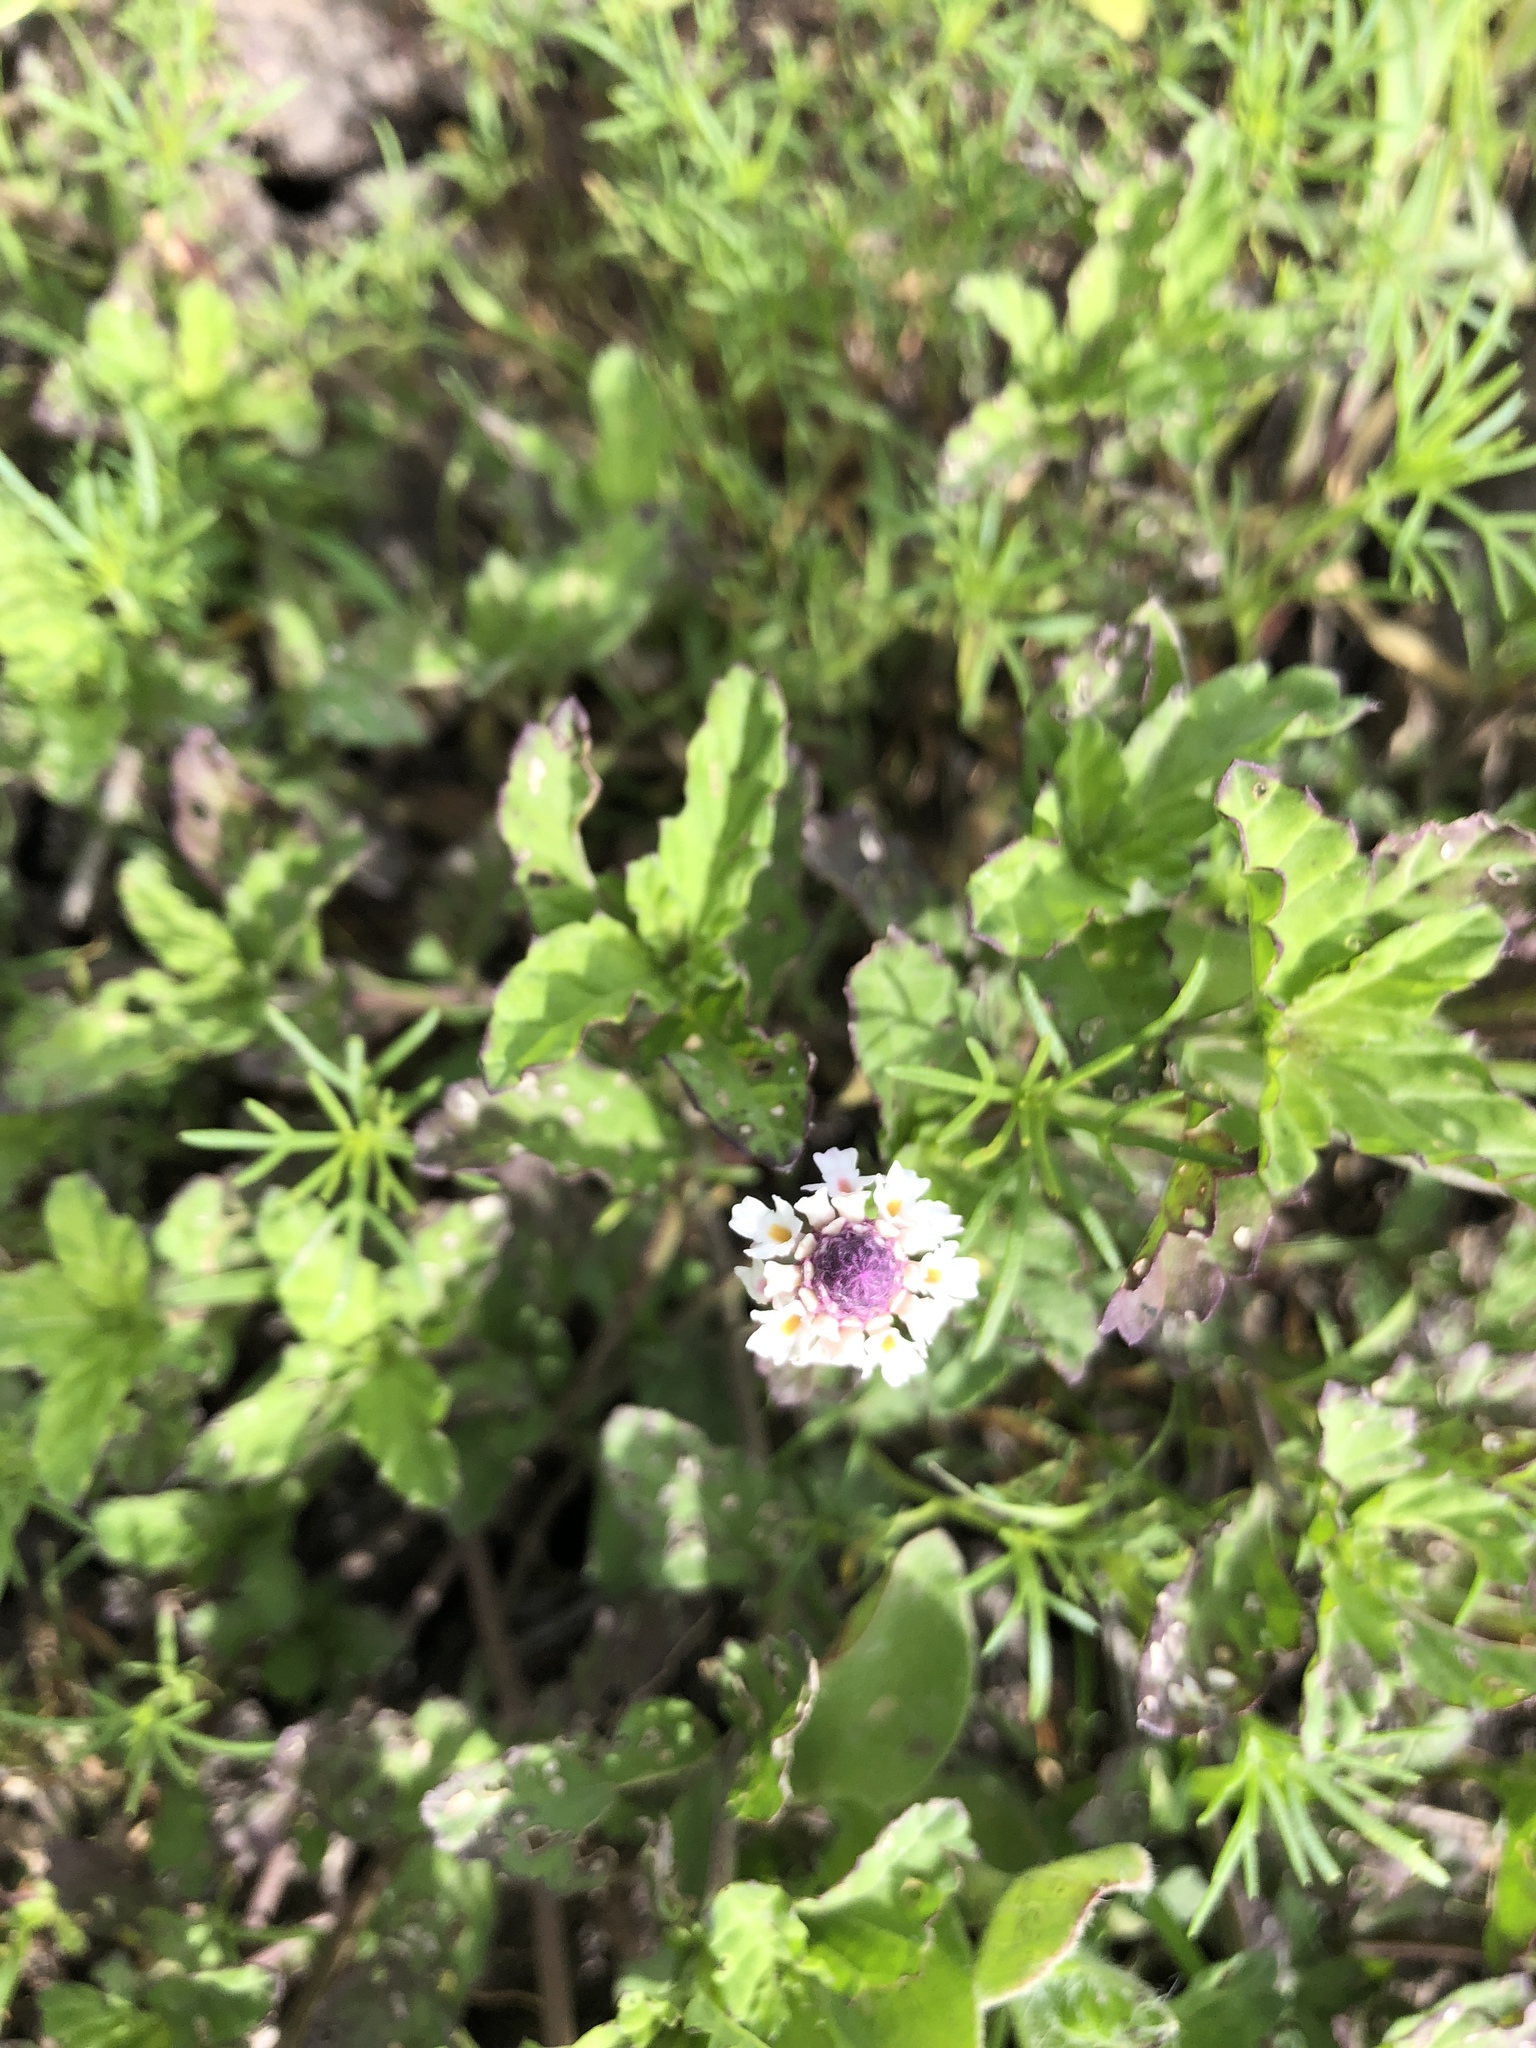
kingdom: Plantae
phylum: Tracheophyta
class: Magnoliopsida
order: Lamiales
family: Verbenaceae
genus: Phyla
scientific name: Phyla nodiflora
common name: Frogfruit
